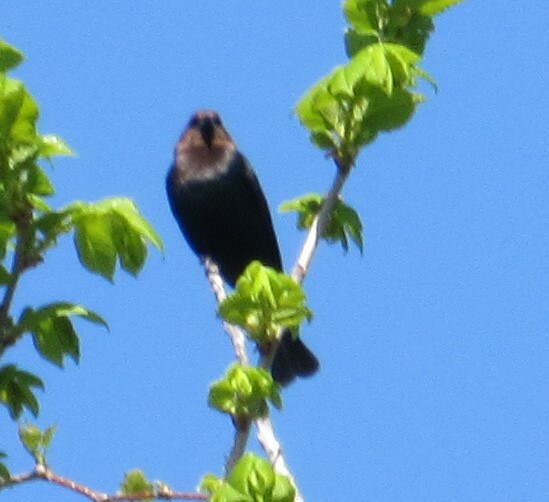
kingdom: Animalia
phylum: Chordata
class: Aves
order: Passeriformes
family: Icteridae
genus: Molothrus
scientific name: Molothrus ater
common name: Brown-headed cowbird
